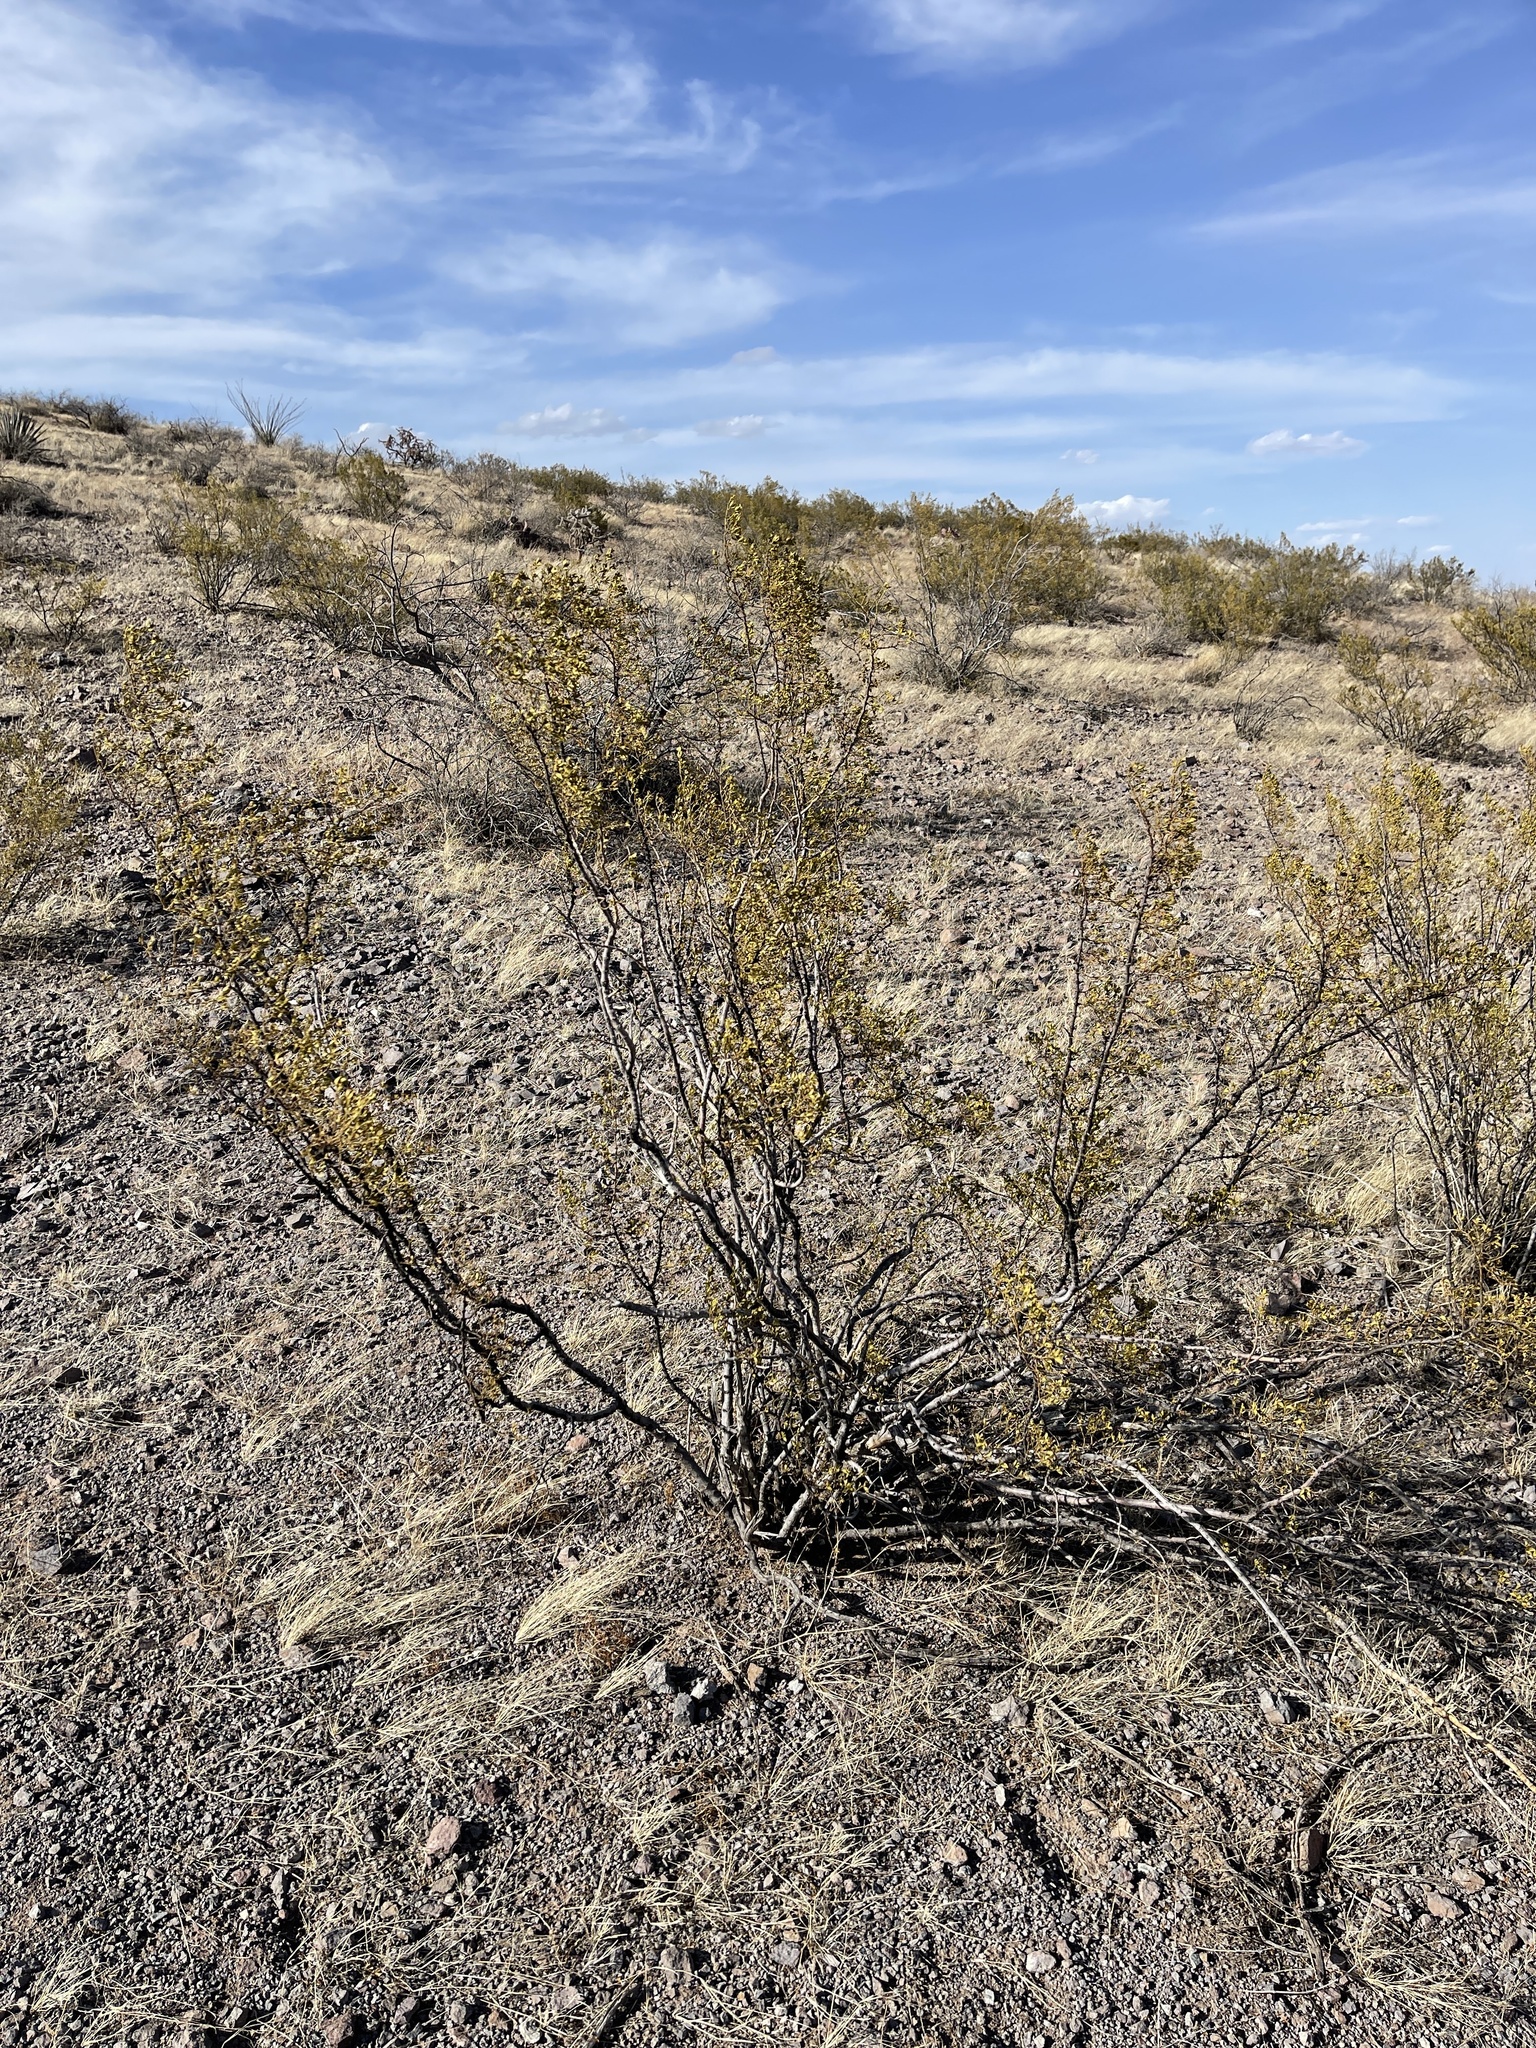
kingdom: Plantae
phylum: Tracheophyta
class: Magnoliopsida
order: Zygophyllales
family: Zygophyllaceae
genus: Larrea
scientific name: Larrea tridentata
